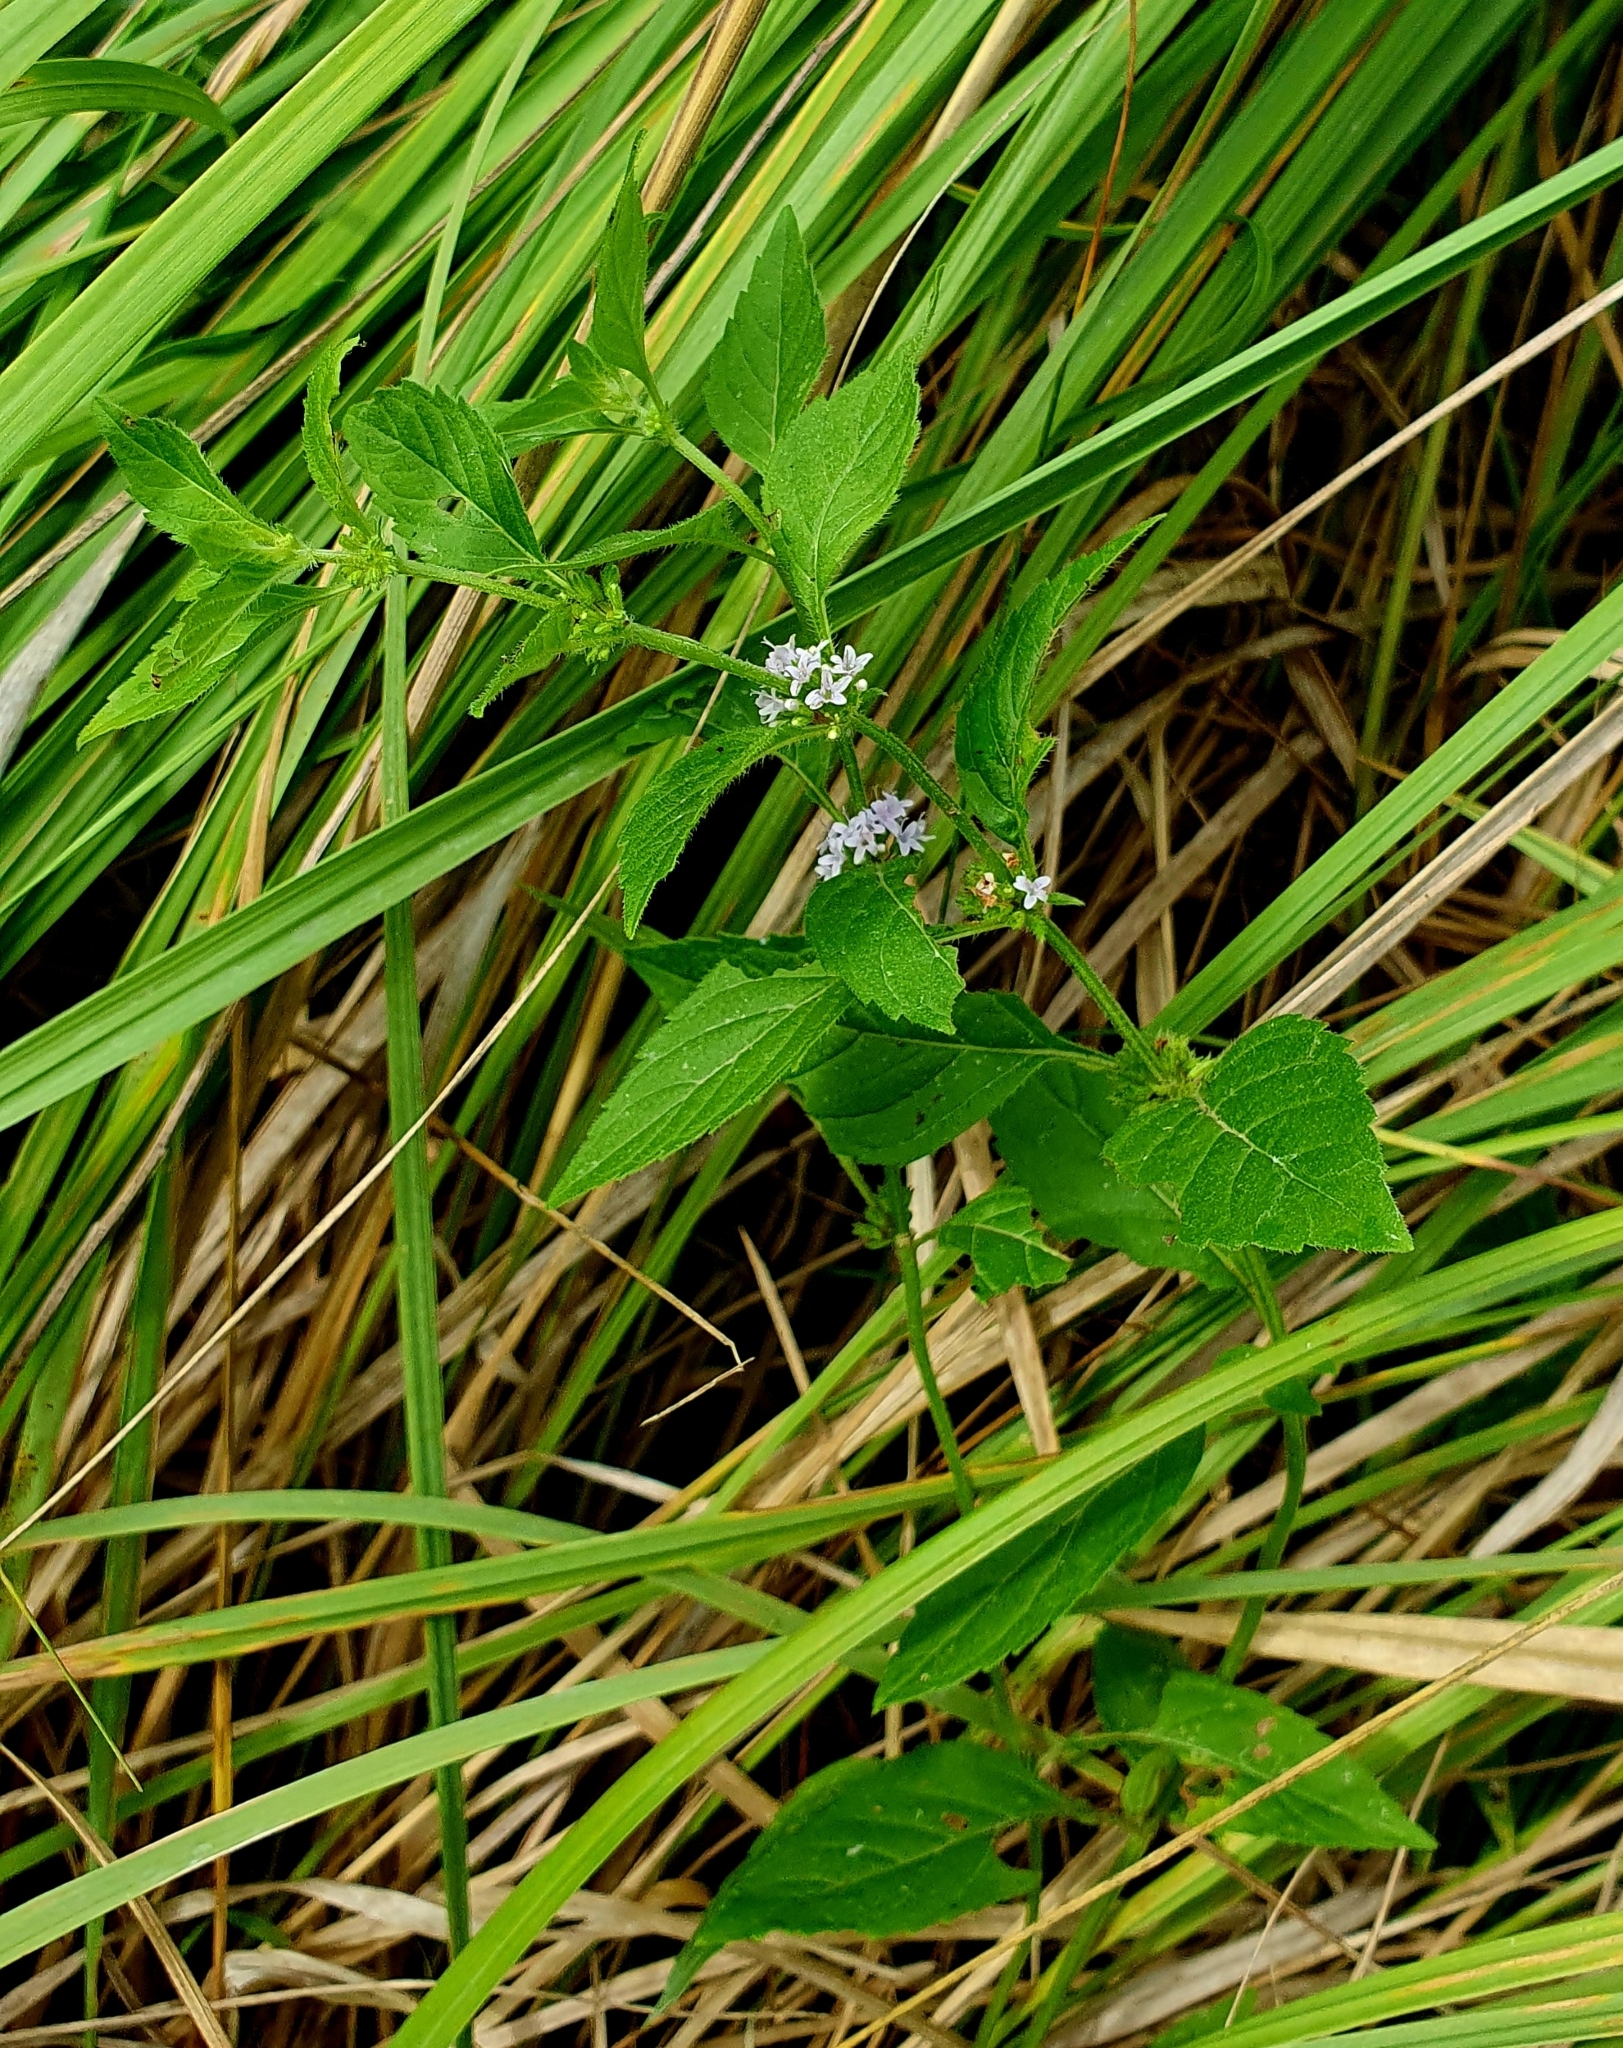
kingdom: Plantae
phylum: Tracheophyta
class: Magnoliopsida
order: Lamiales
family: Lamiaceae
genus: Mentha
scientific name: Mentha arvensis
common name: Corn mint
